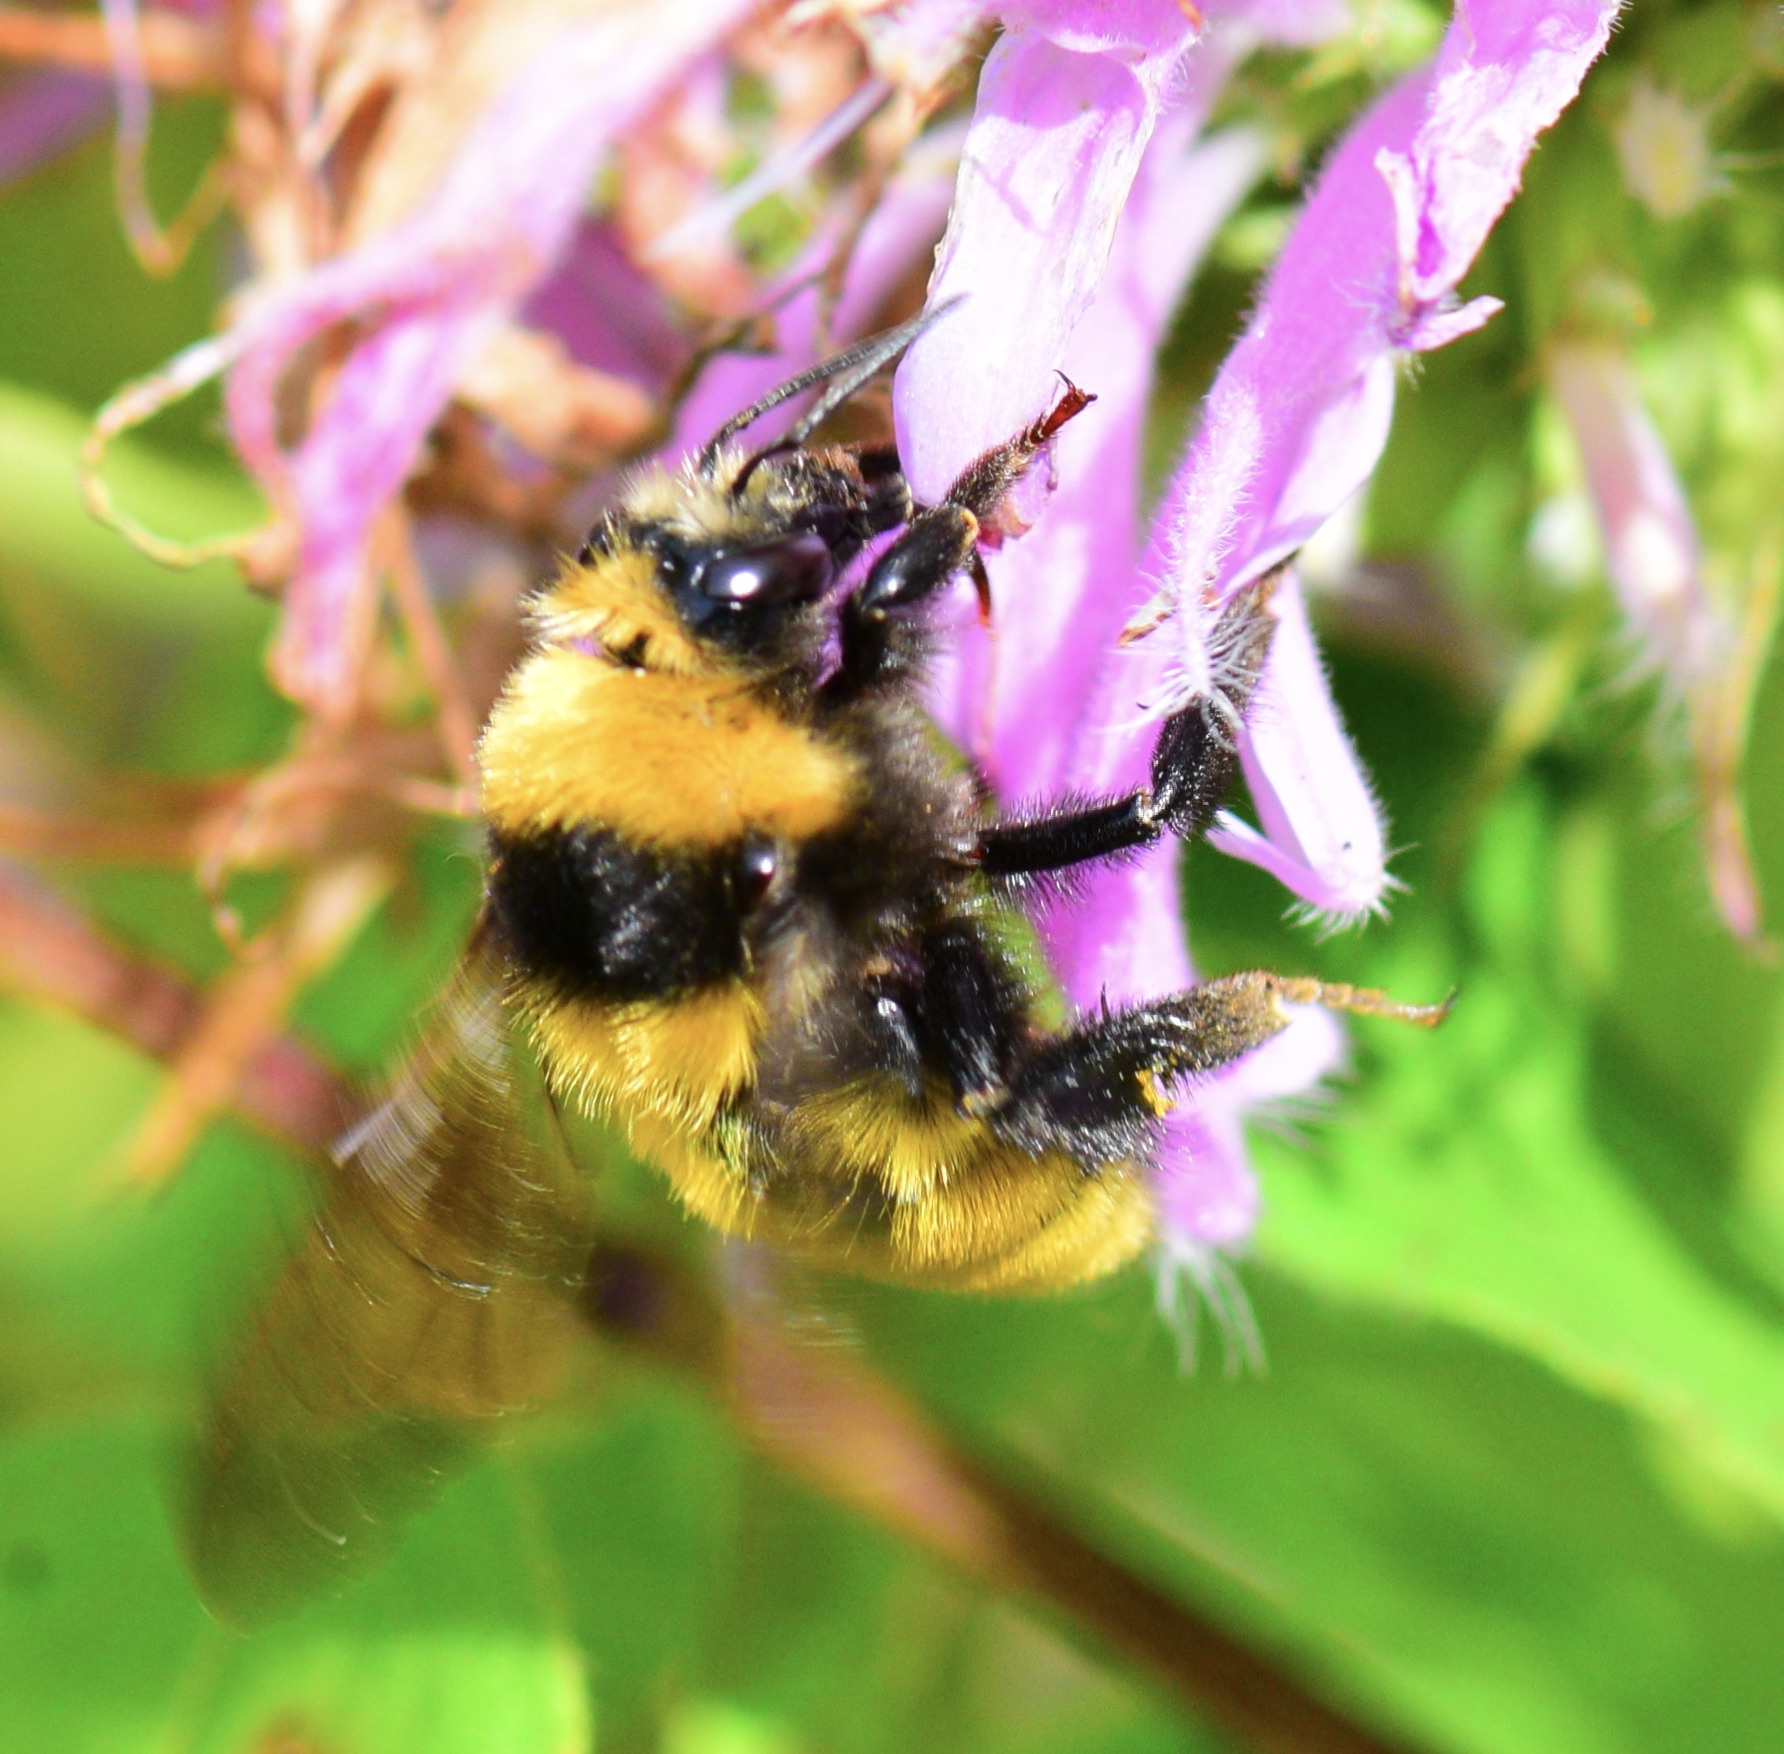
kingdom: Animalia
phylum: Arthropoda
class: Insecta
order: Hymenoptera
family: Apidae
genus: Bombus
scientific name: Bombus borealis
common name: Northern amber bumble bee
